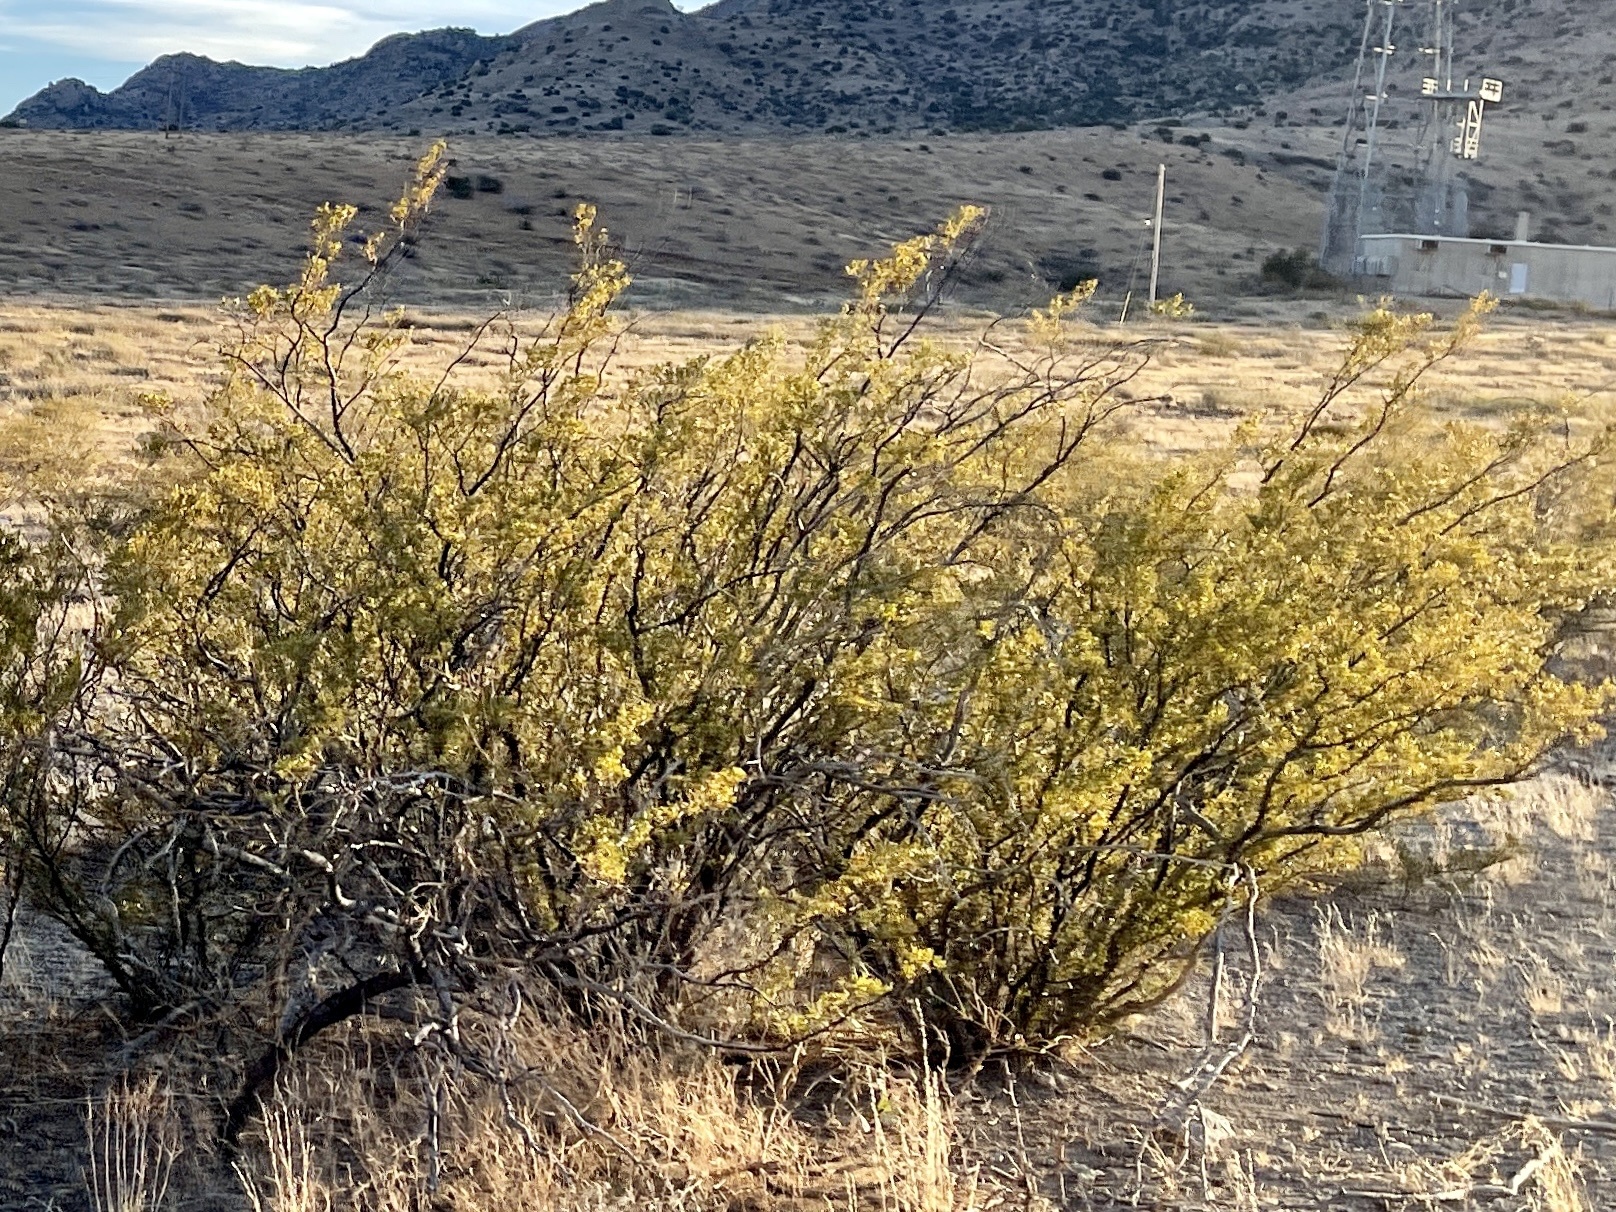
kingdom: Plantae
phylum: Tracheophyta
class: Magnoliopsida
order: Zygophyllales
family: Zygophyllaceae
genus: Larrea
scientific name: Larrea tridentata
